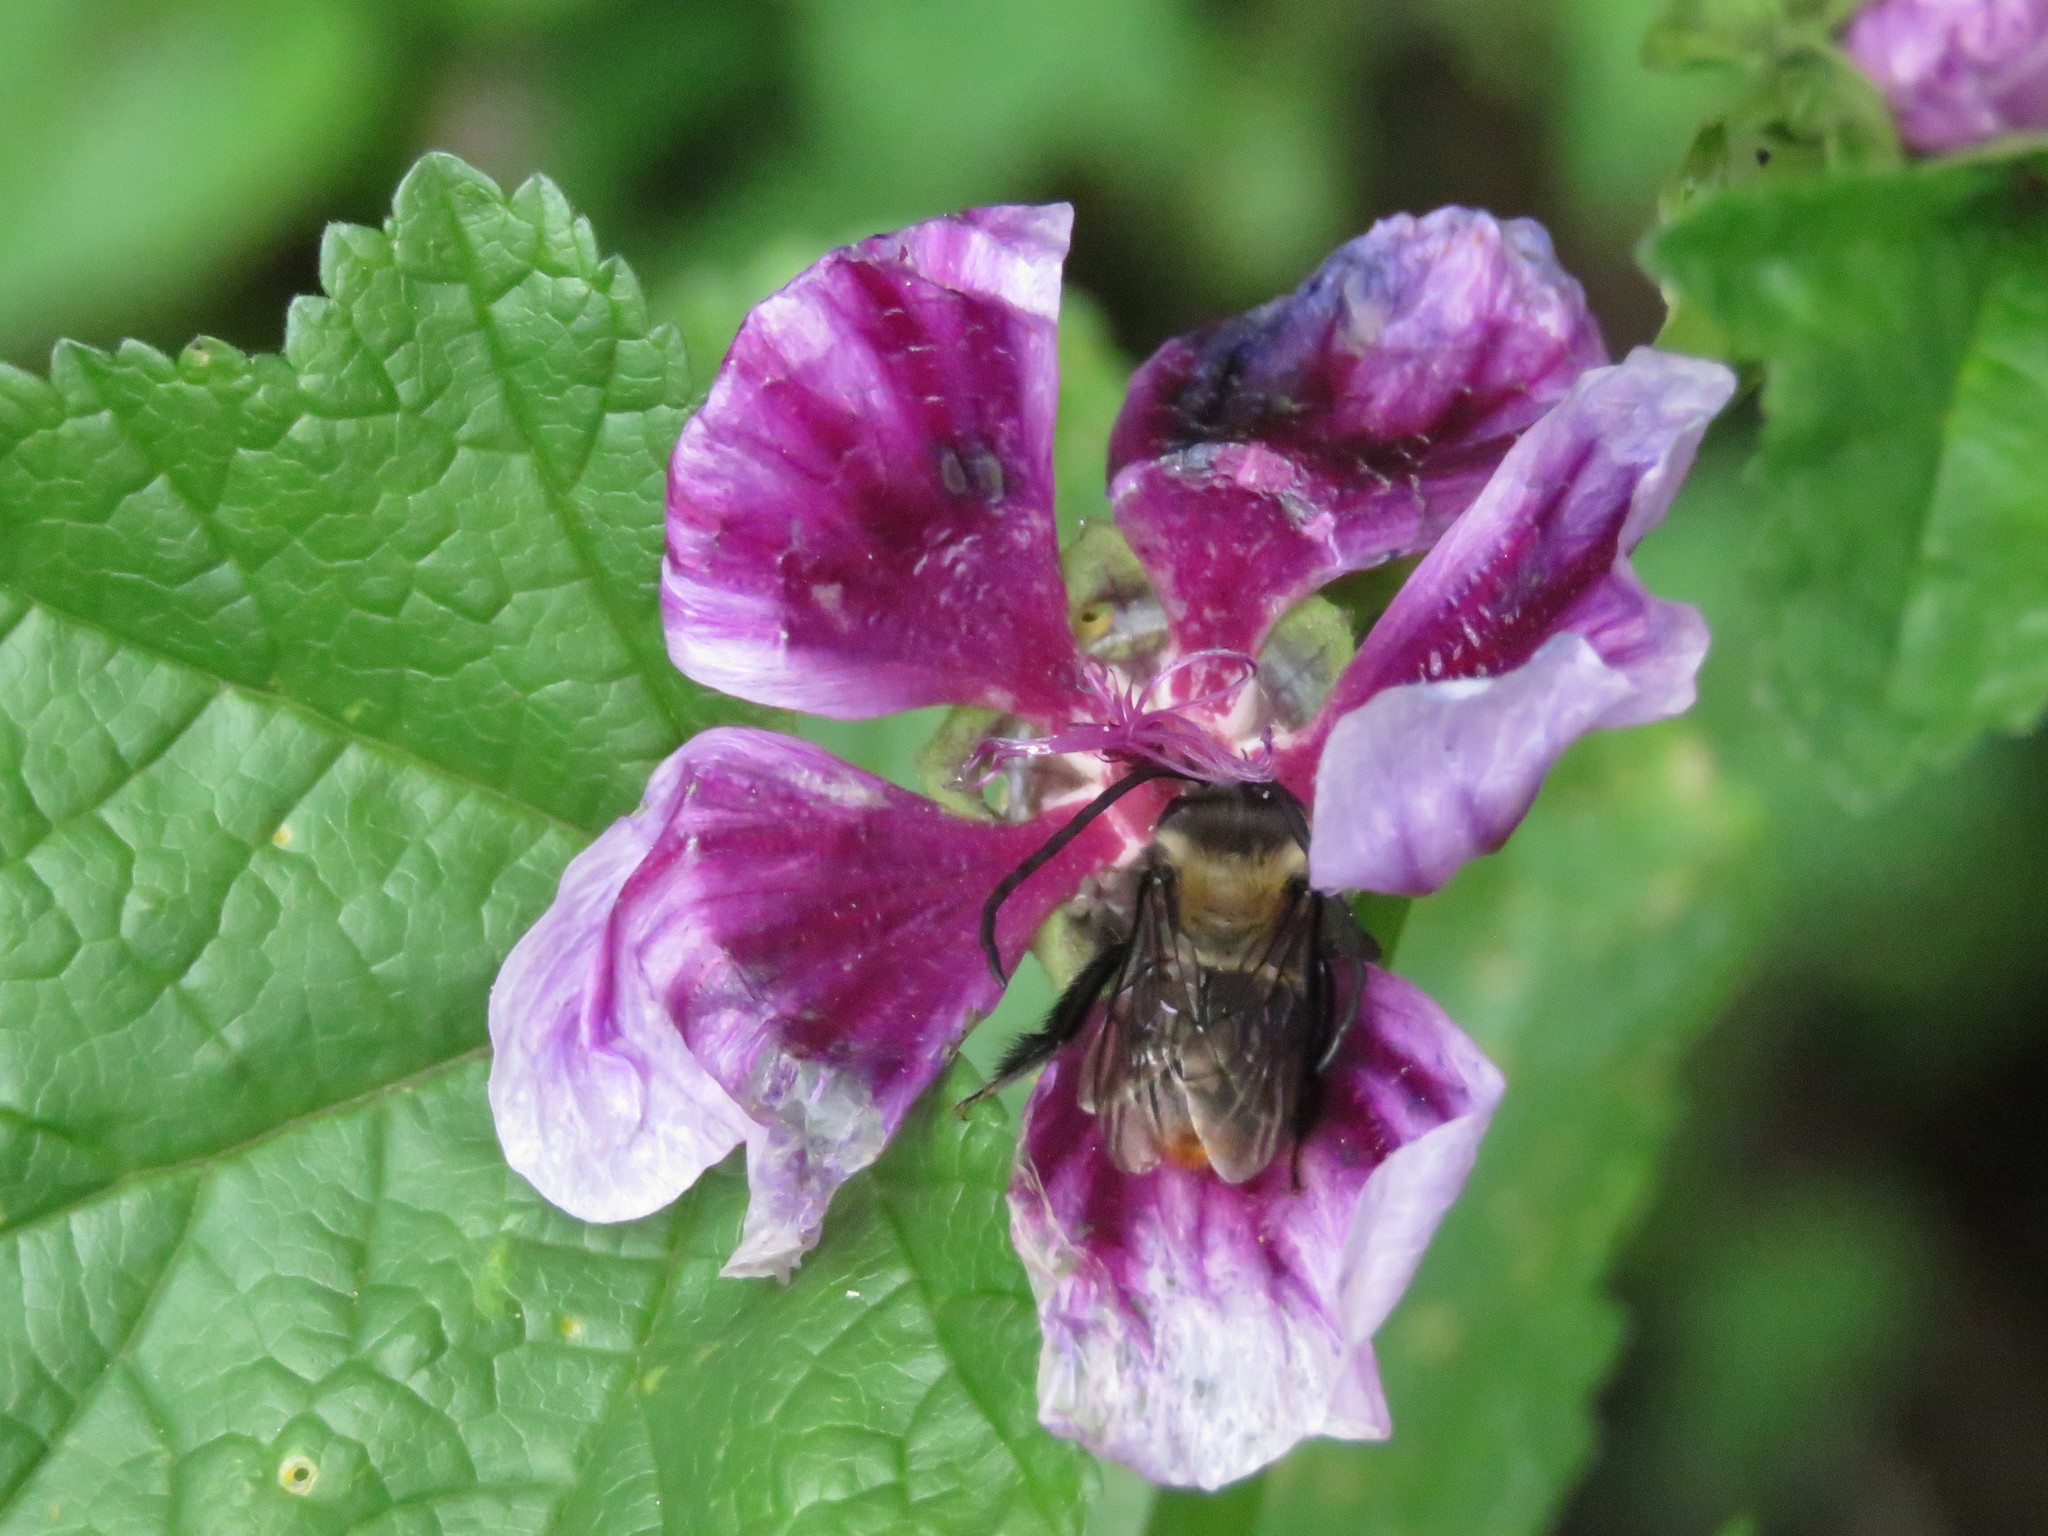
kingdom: Animalia
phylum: Arthropoda
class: Insecta
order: Hymenoptera
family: Apidae
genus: Thygater
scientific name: Thygater aethiops
